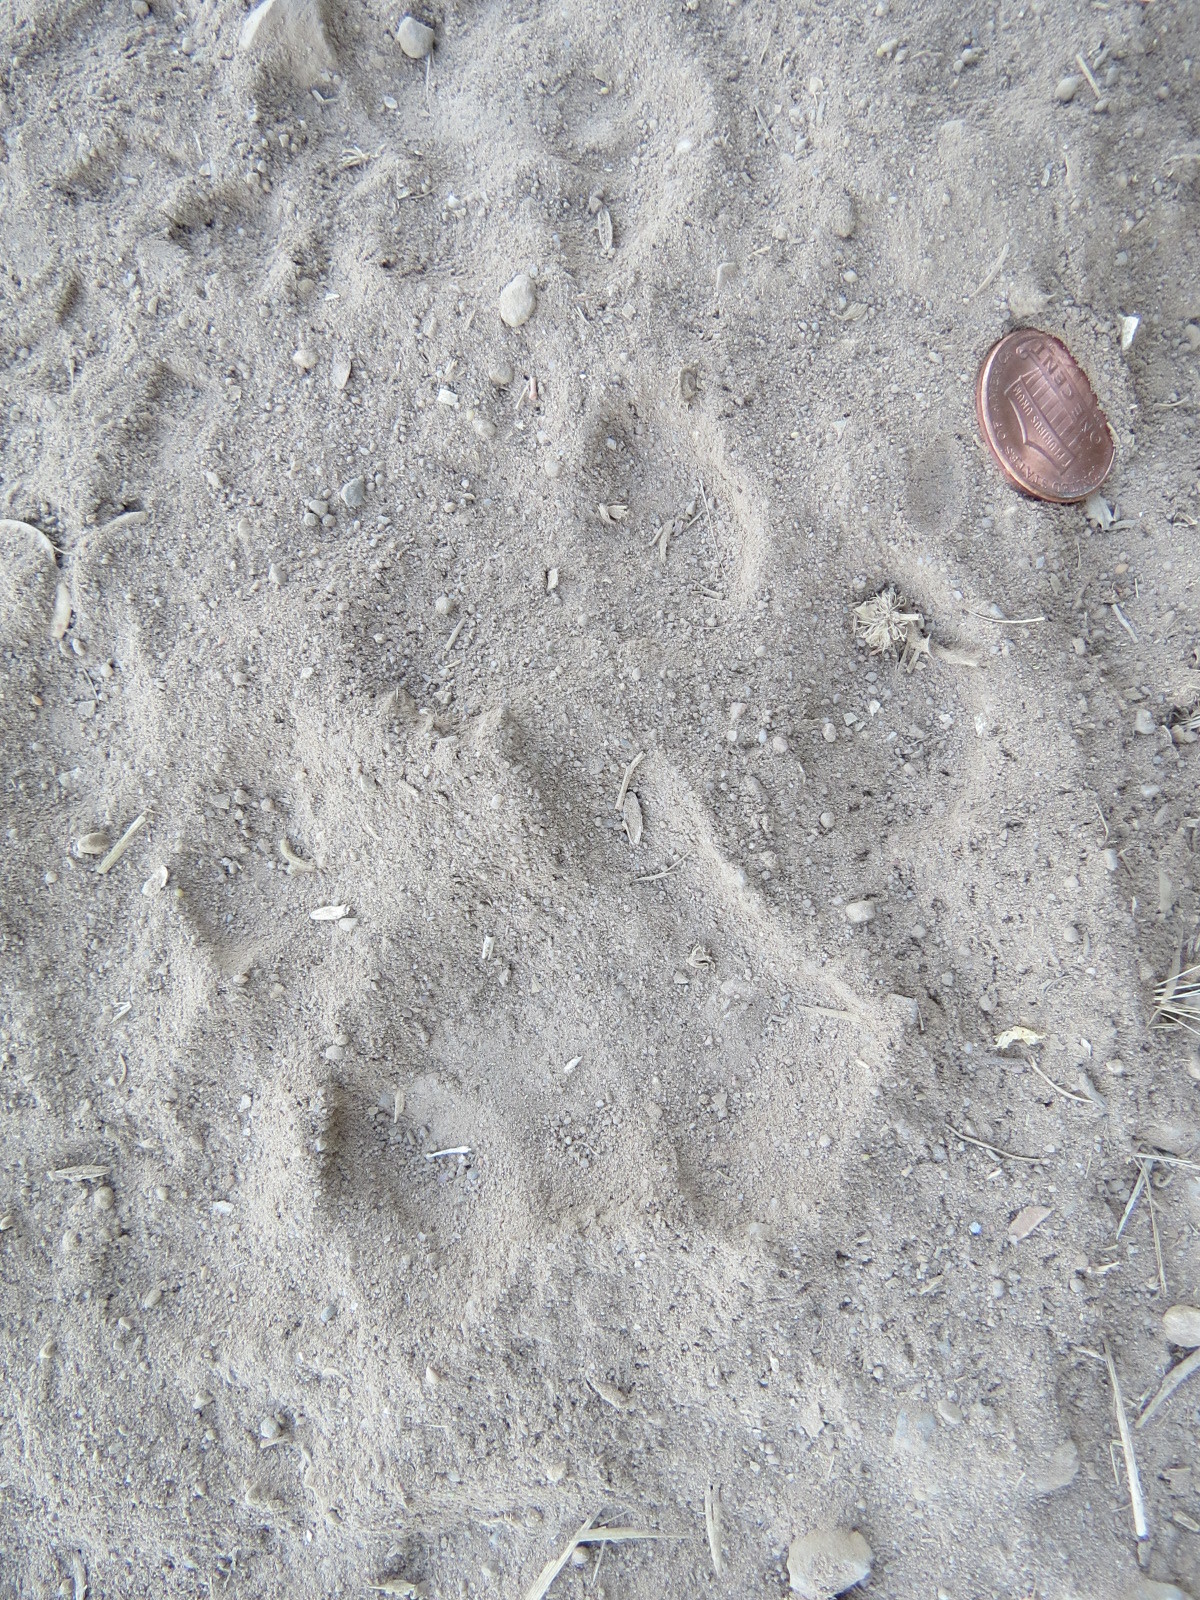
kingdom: Animalia
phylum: Chordata
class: Mammalia
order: Carnivora
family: Felidae
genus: Puma
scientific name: Puma concolor
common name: Puma
